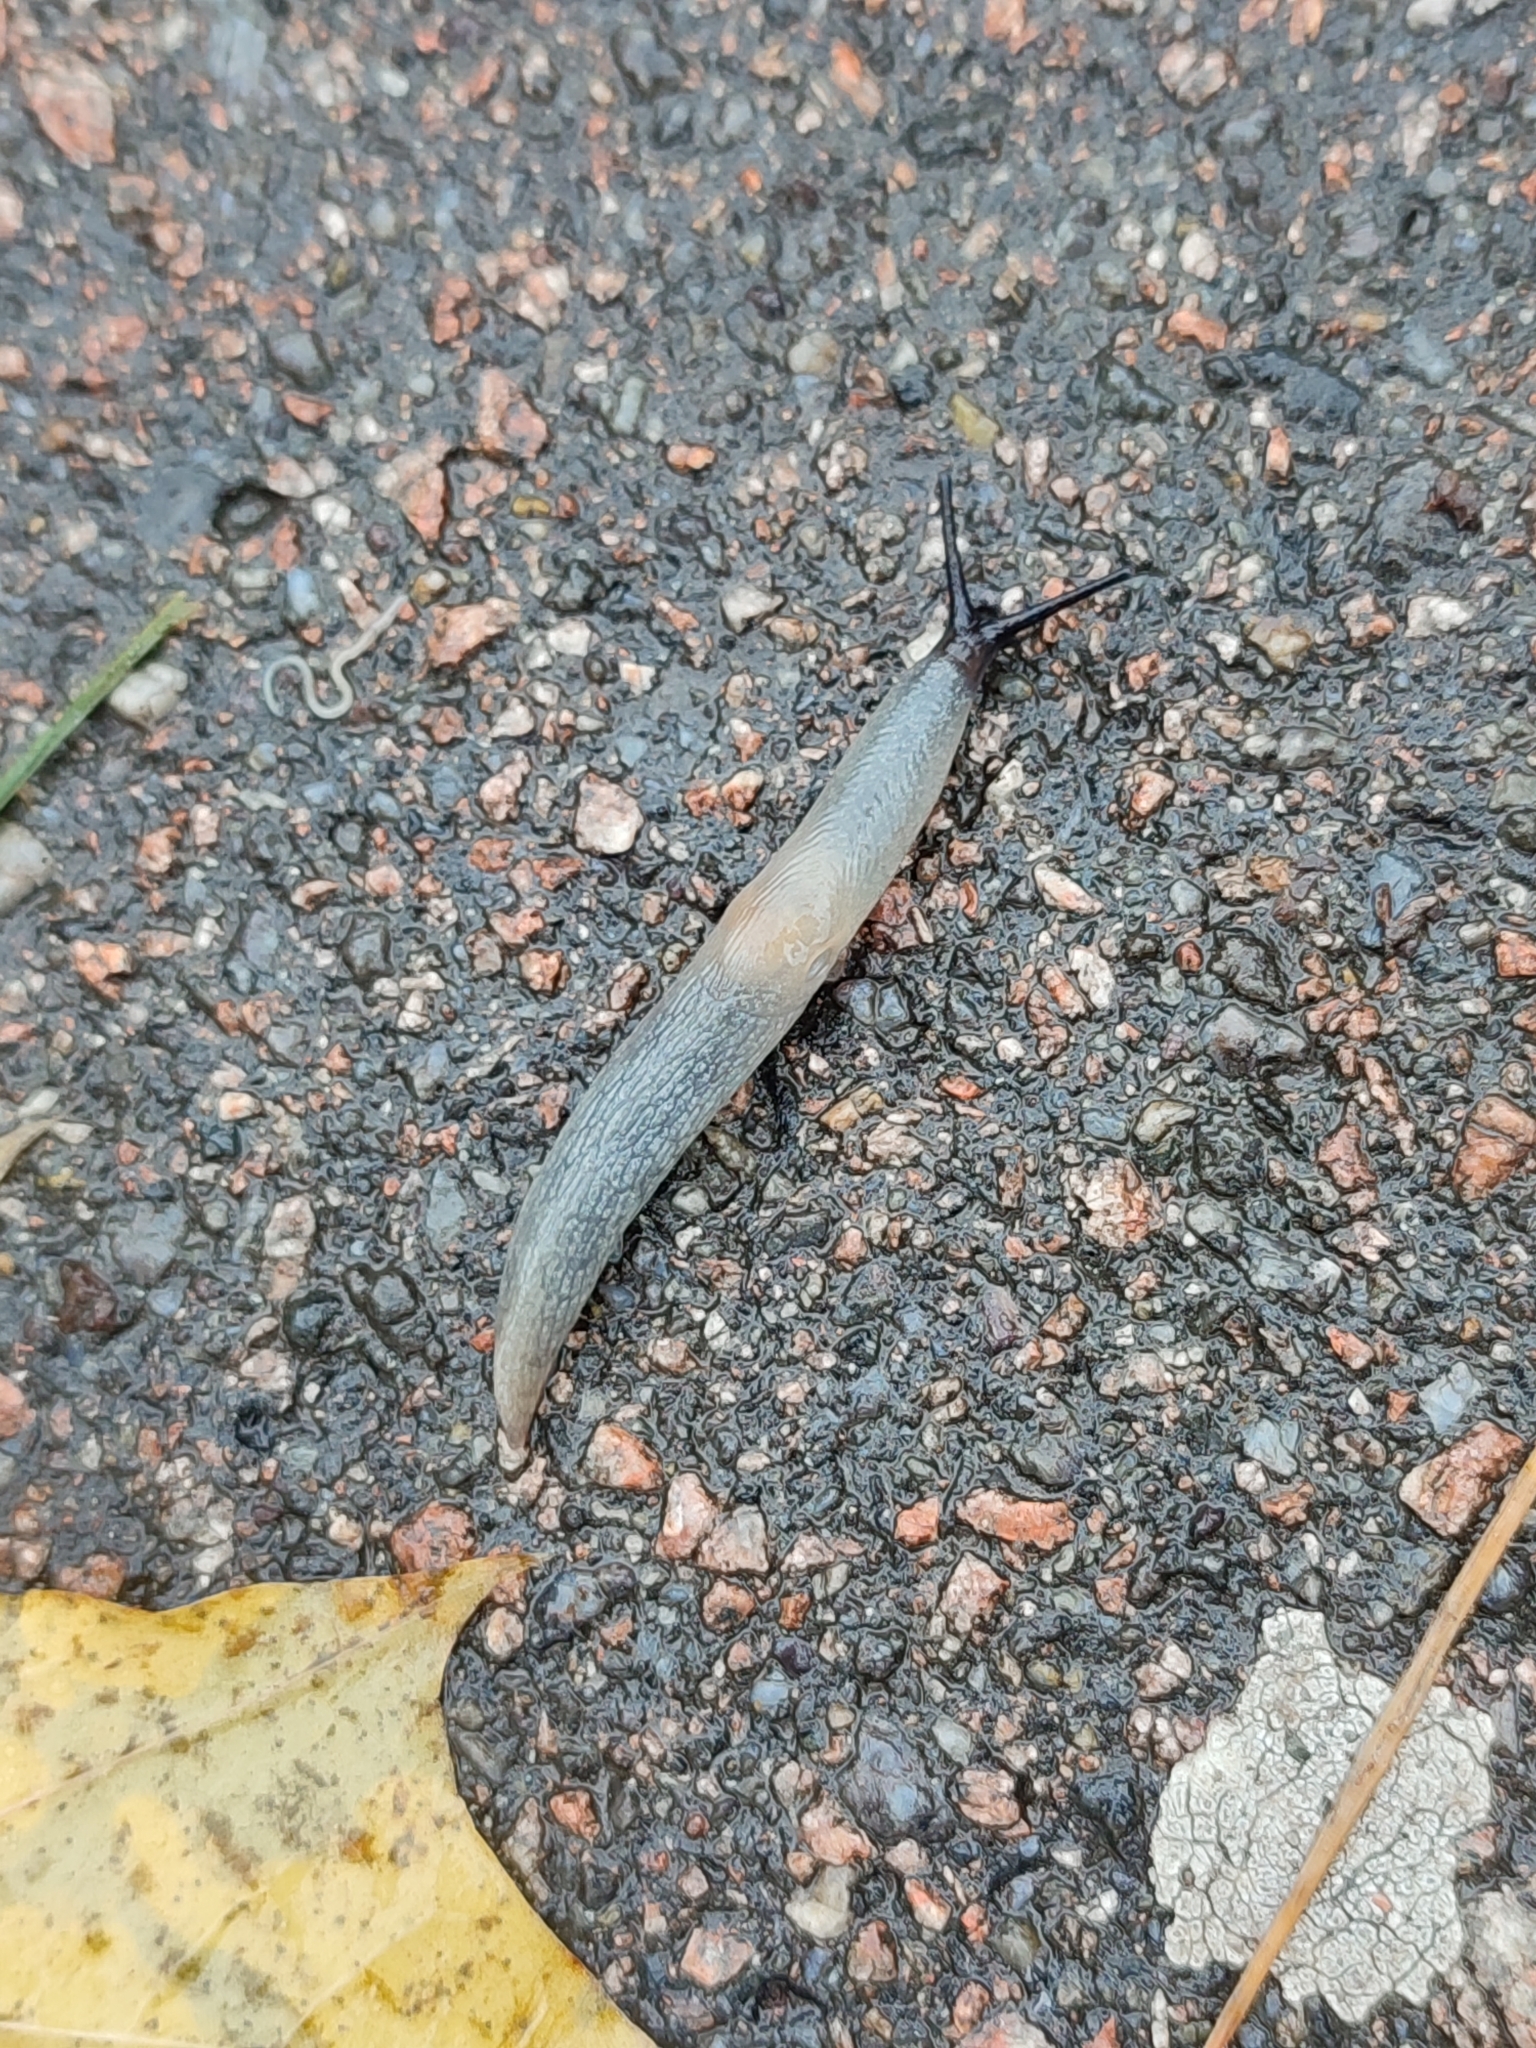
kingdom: Animalia
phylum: Mollusca
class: Gastropoda
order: Stylommatophora
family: Agriolimacidae
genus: Krynickillus
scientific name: Krynickillus melanocephalus
